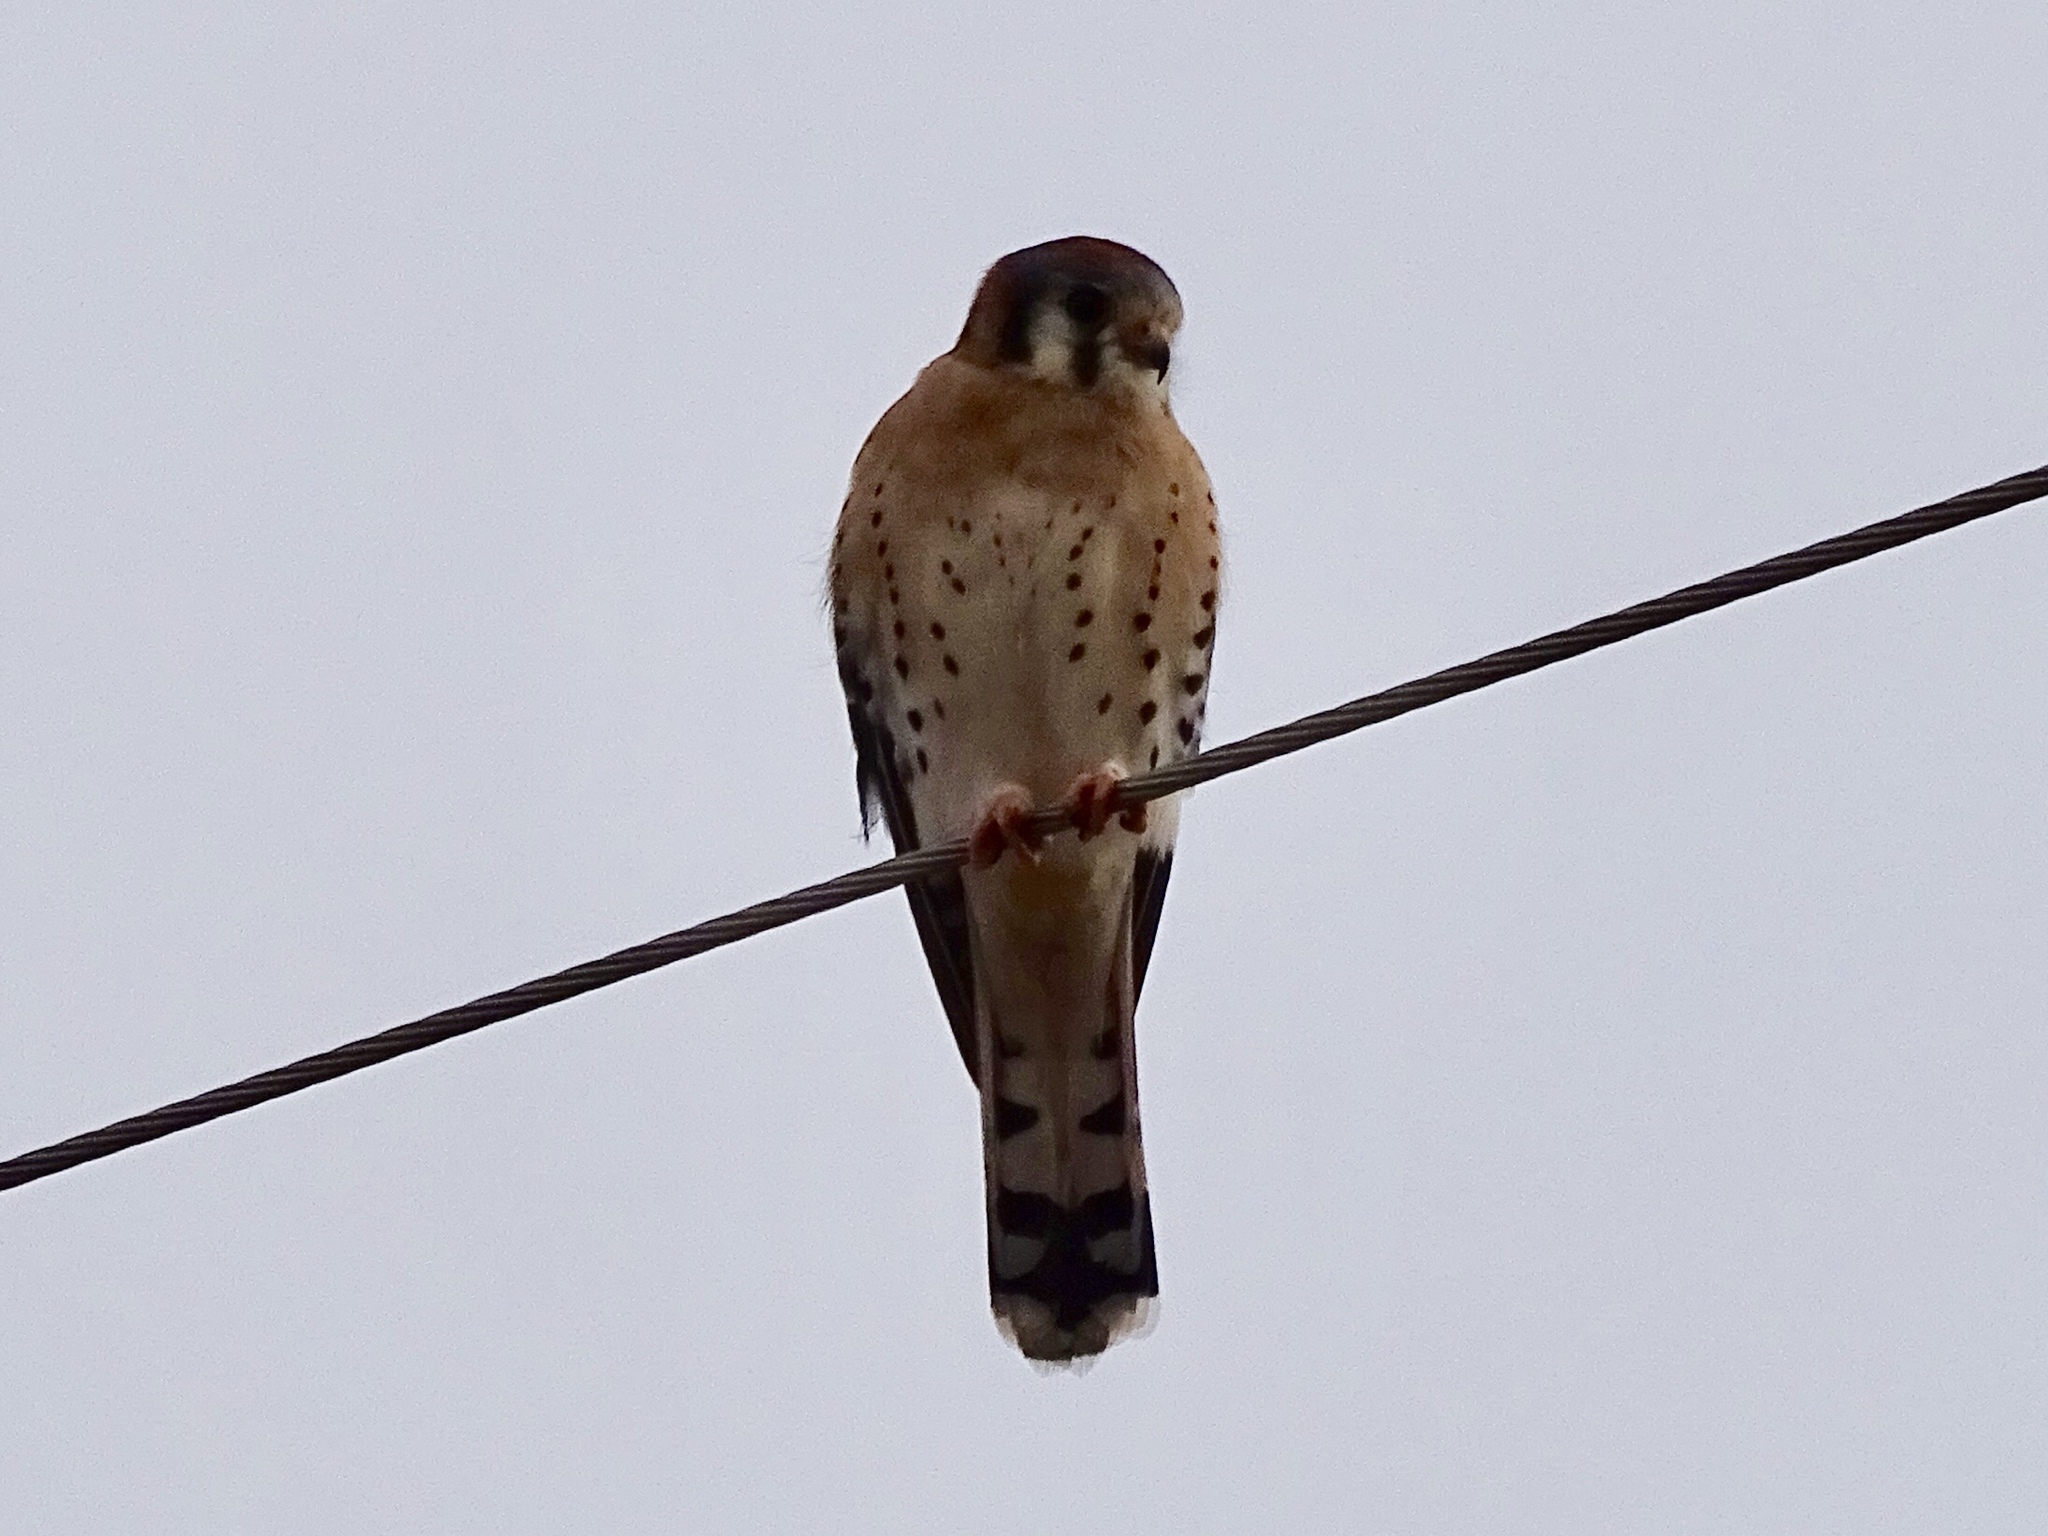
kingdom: Animalia
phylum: Chordata
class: Aves
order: Falconiformes
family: Falconidae
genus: Falco
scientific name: Falco sparverius
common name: American kestrel
